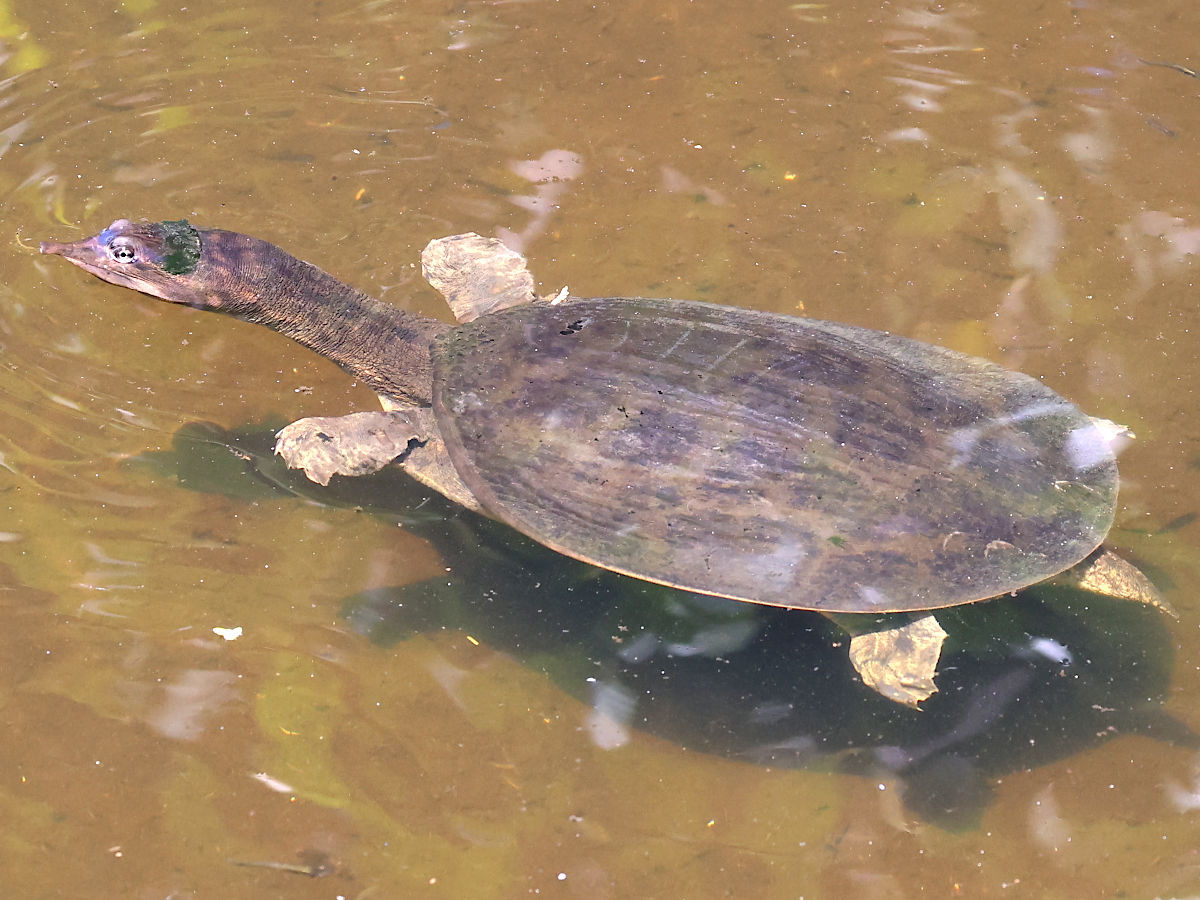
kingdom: Animalia
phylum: Chordata
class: Testudines
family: Trionychidae
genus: Apalone
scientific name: Apalone ferox
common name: Florida softshell turtle
